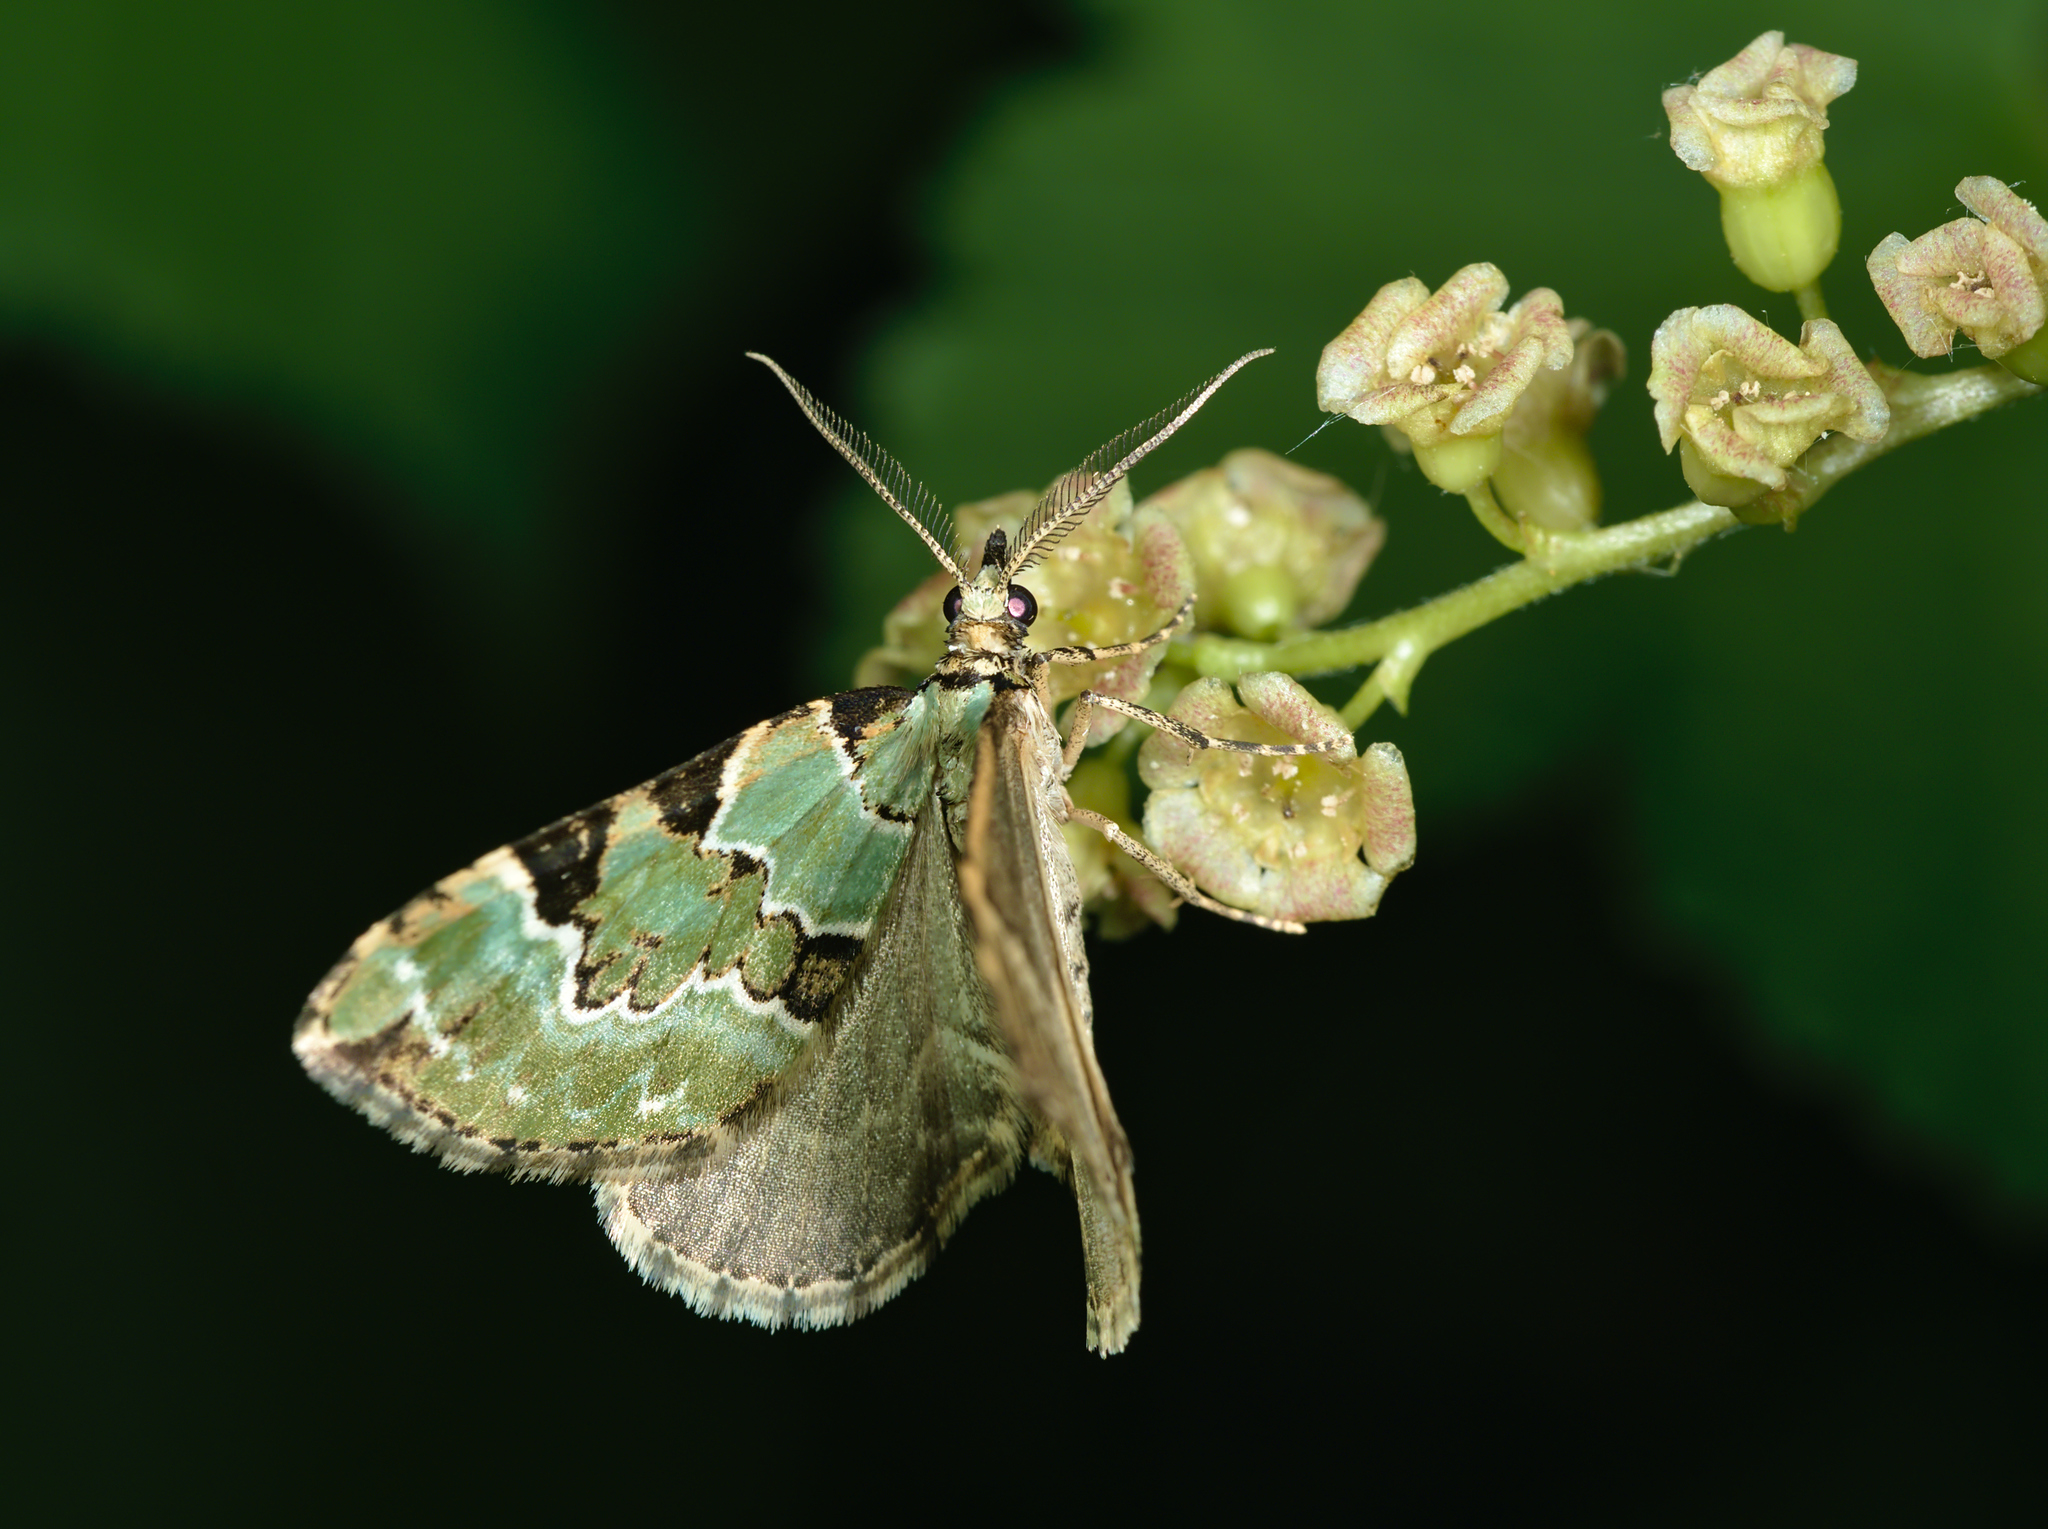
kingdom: Animalia
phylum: Arthropoda
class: Insecta
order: Lepidoptera
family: Geometridae
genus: Colostygia
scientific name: Colostygia pectinataria
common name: Green carpet
